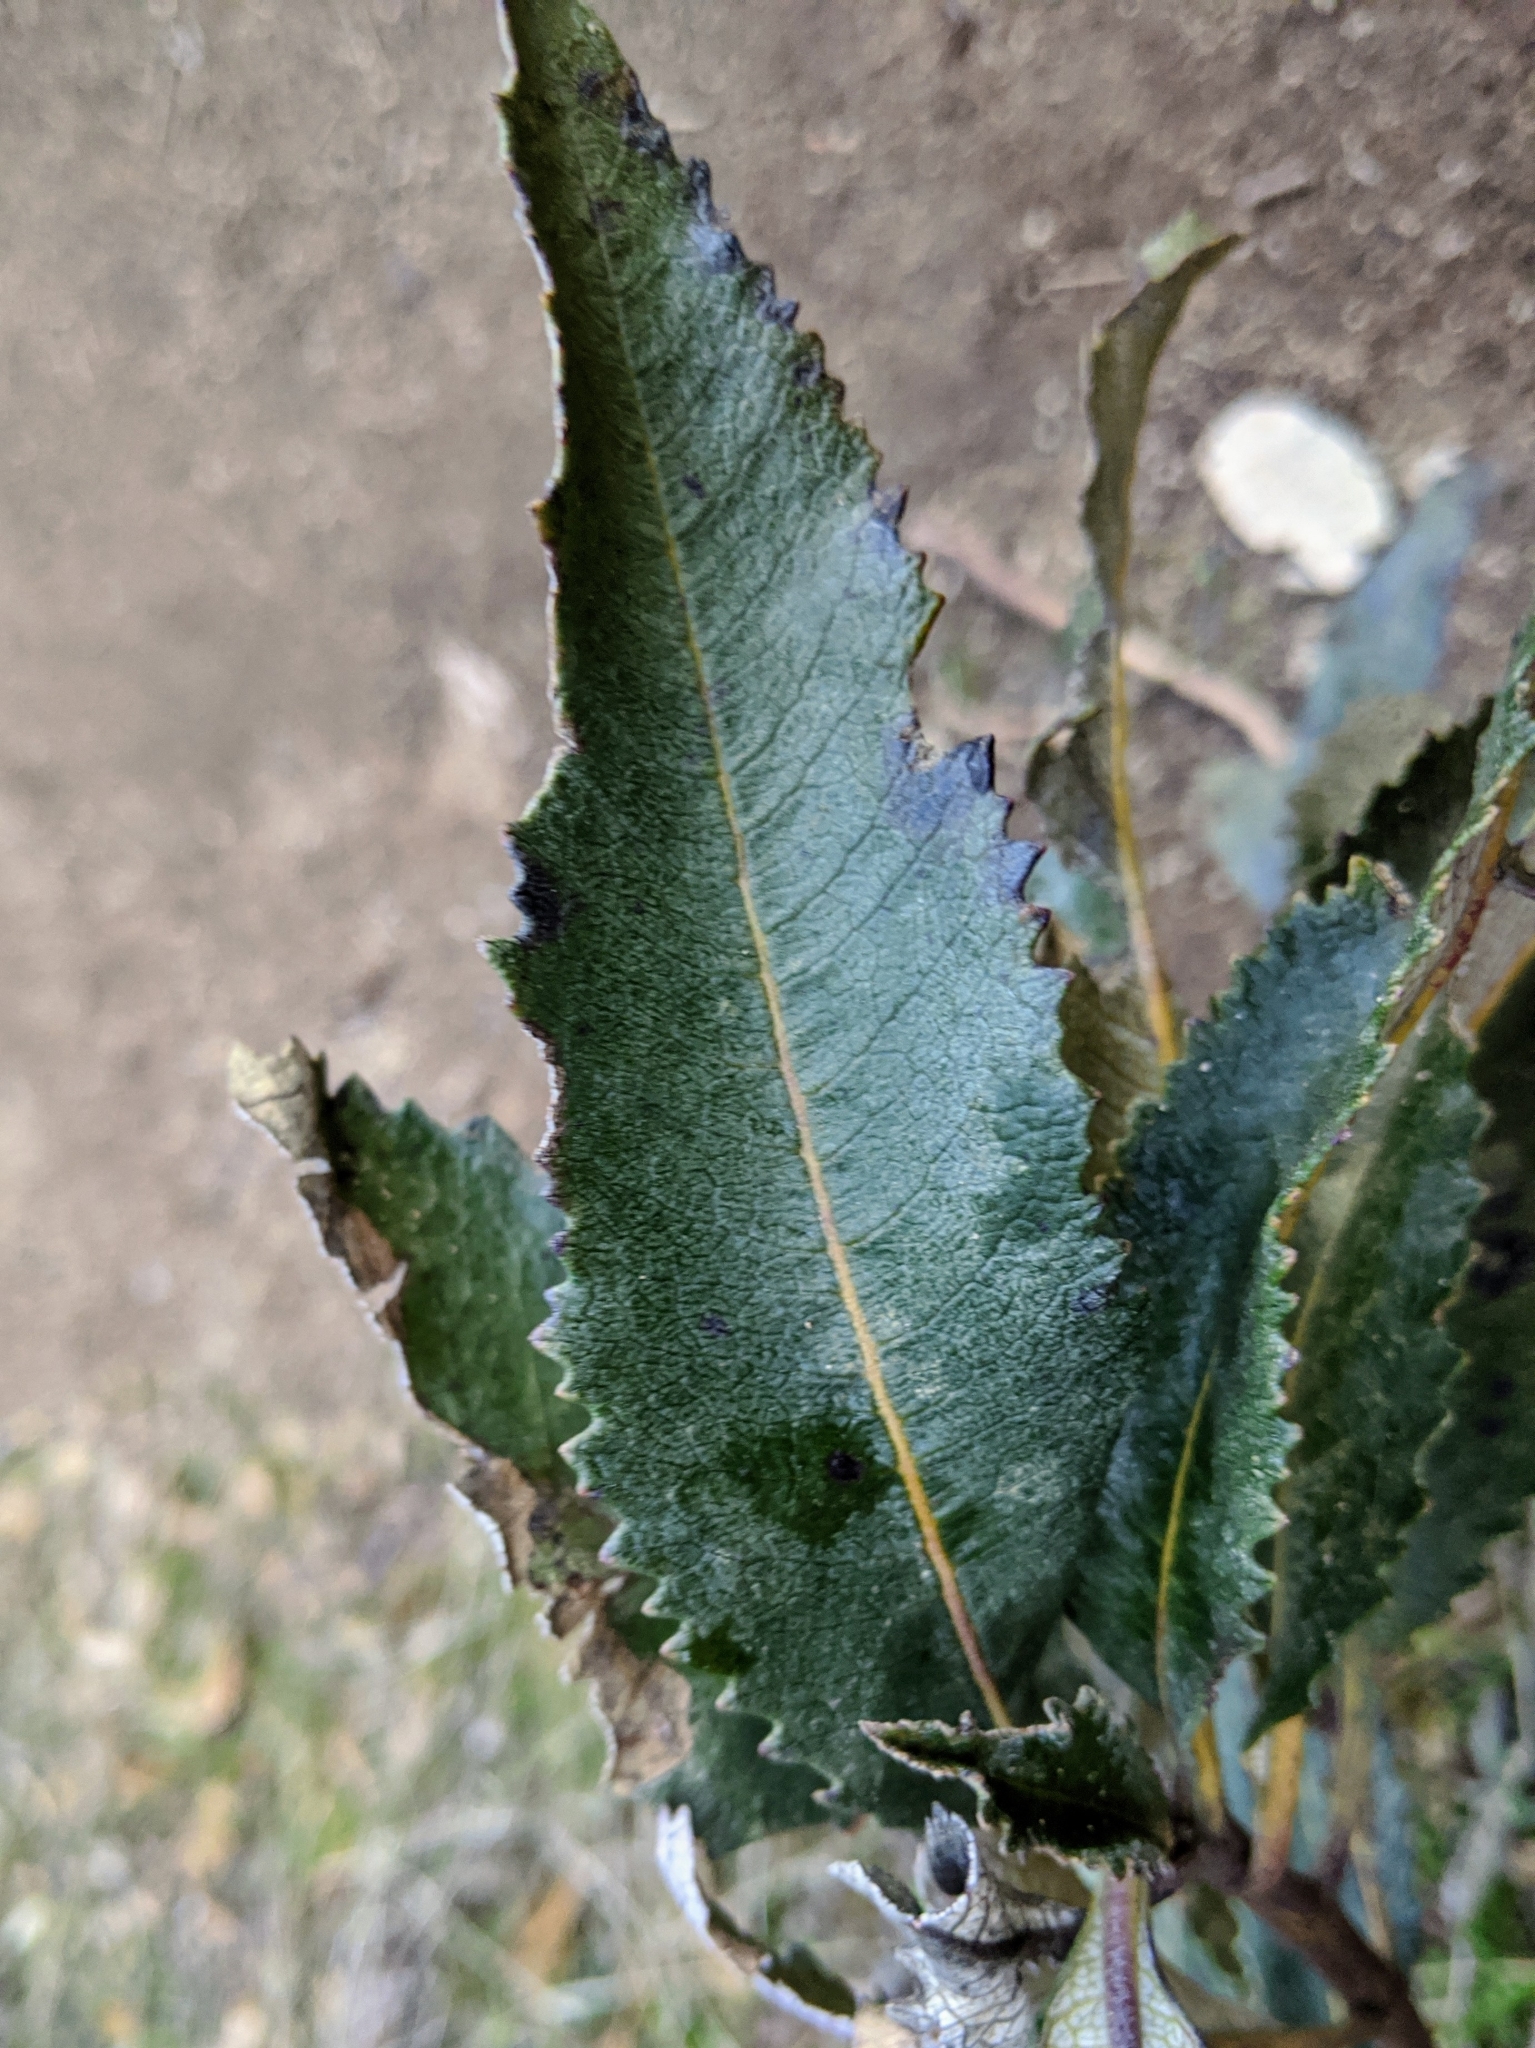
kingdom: Plantae
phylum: Tracheophyta
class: Magnoliopsida
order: Boraginales
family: Namaceae
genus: Eriodictyon
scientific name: Eriodictyon californicum
